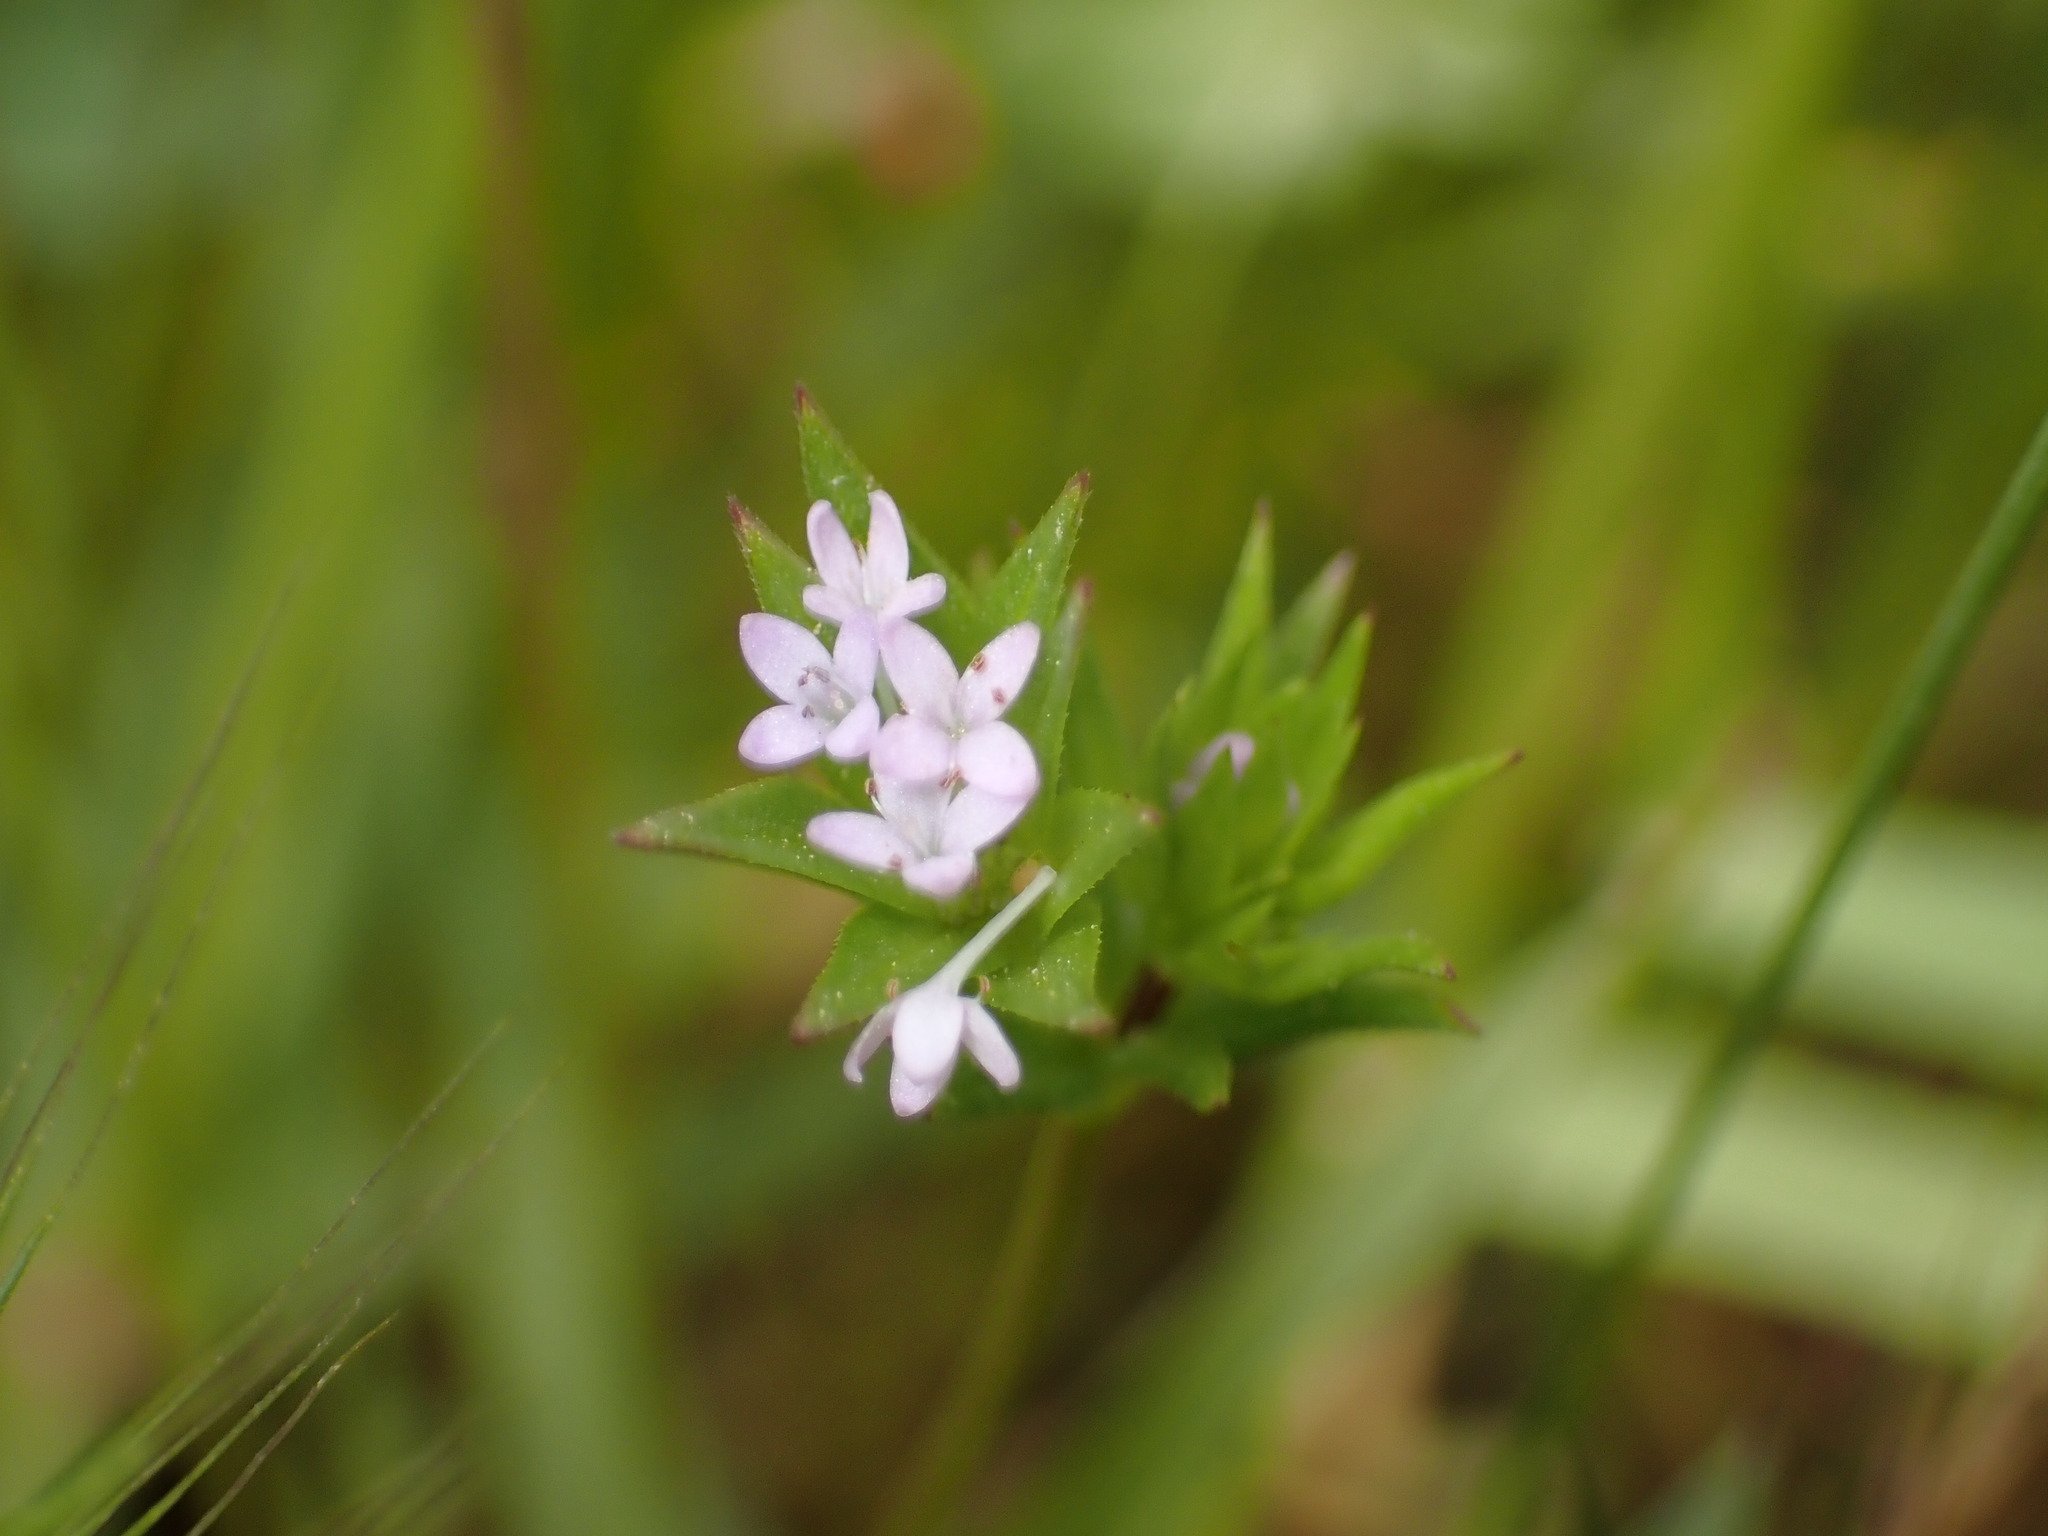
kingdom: Plantae
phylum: Tracheophyta
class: Magnoliopsida
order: Gentianales
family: Rubiaceae
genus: Sherardia
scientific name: Sherardia arvensis
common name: Field madder
